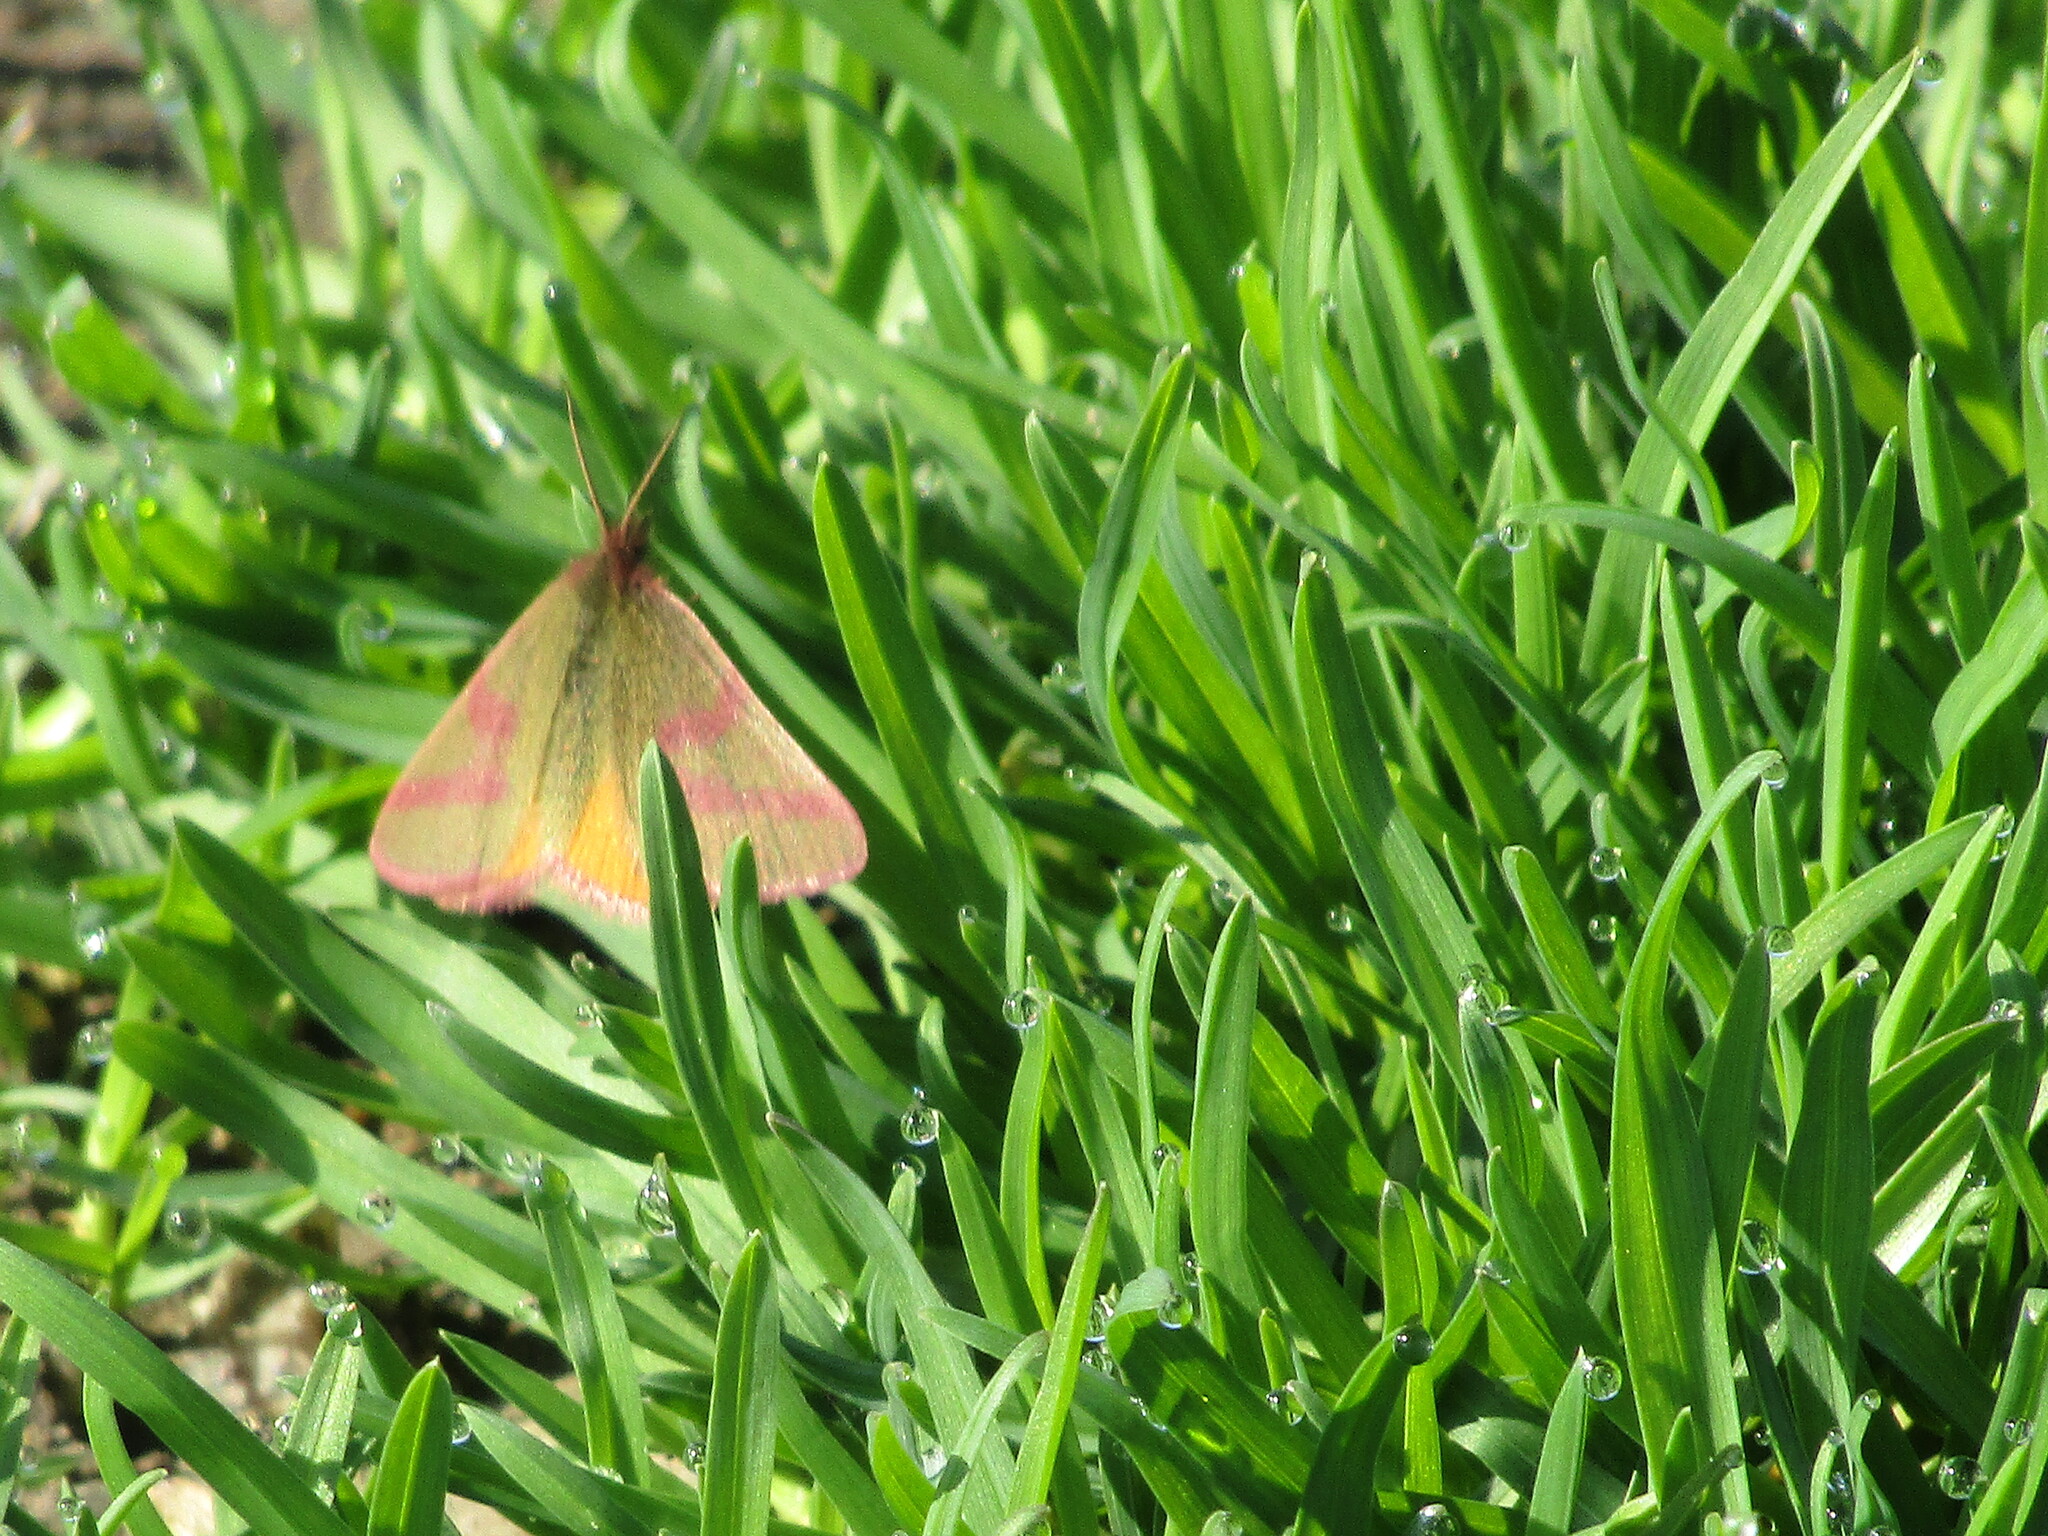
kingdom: Animalia
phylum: Arthropoda
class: Insecta
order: Lepidoptera
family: Geometridae
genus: Lythria
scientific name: Lythria purpuraria
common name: Purple-barred yellow
